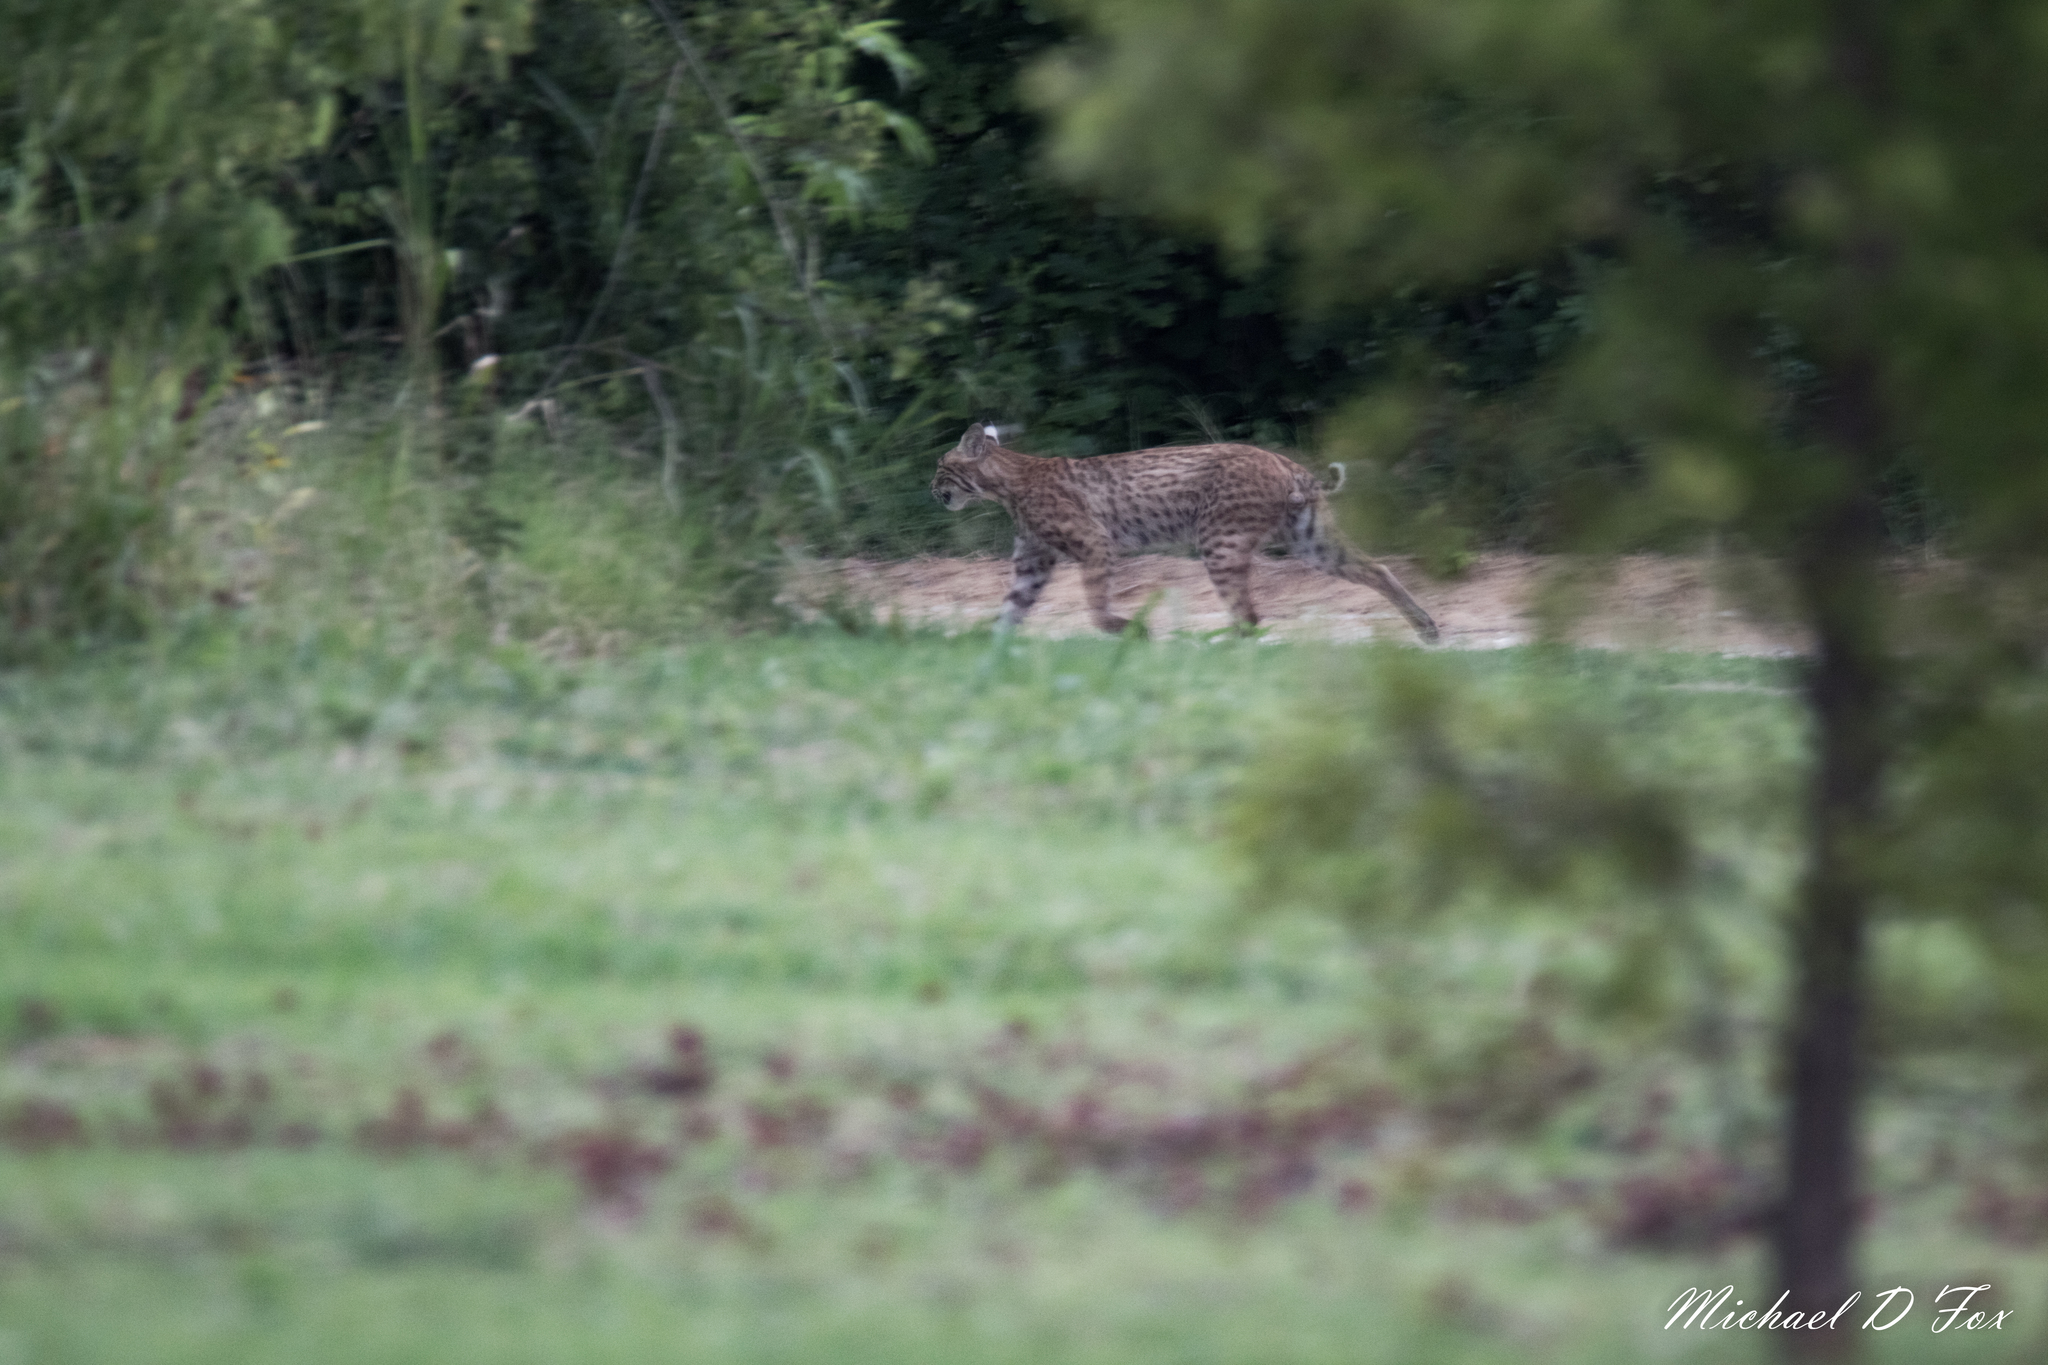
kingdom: Animalia
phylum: Chordata
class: Mammalia
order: Carnivora
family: Felidae
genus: Lynx
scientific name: Lynx rufus
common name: Bobcat
